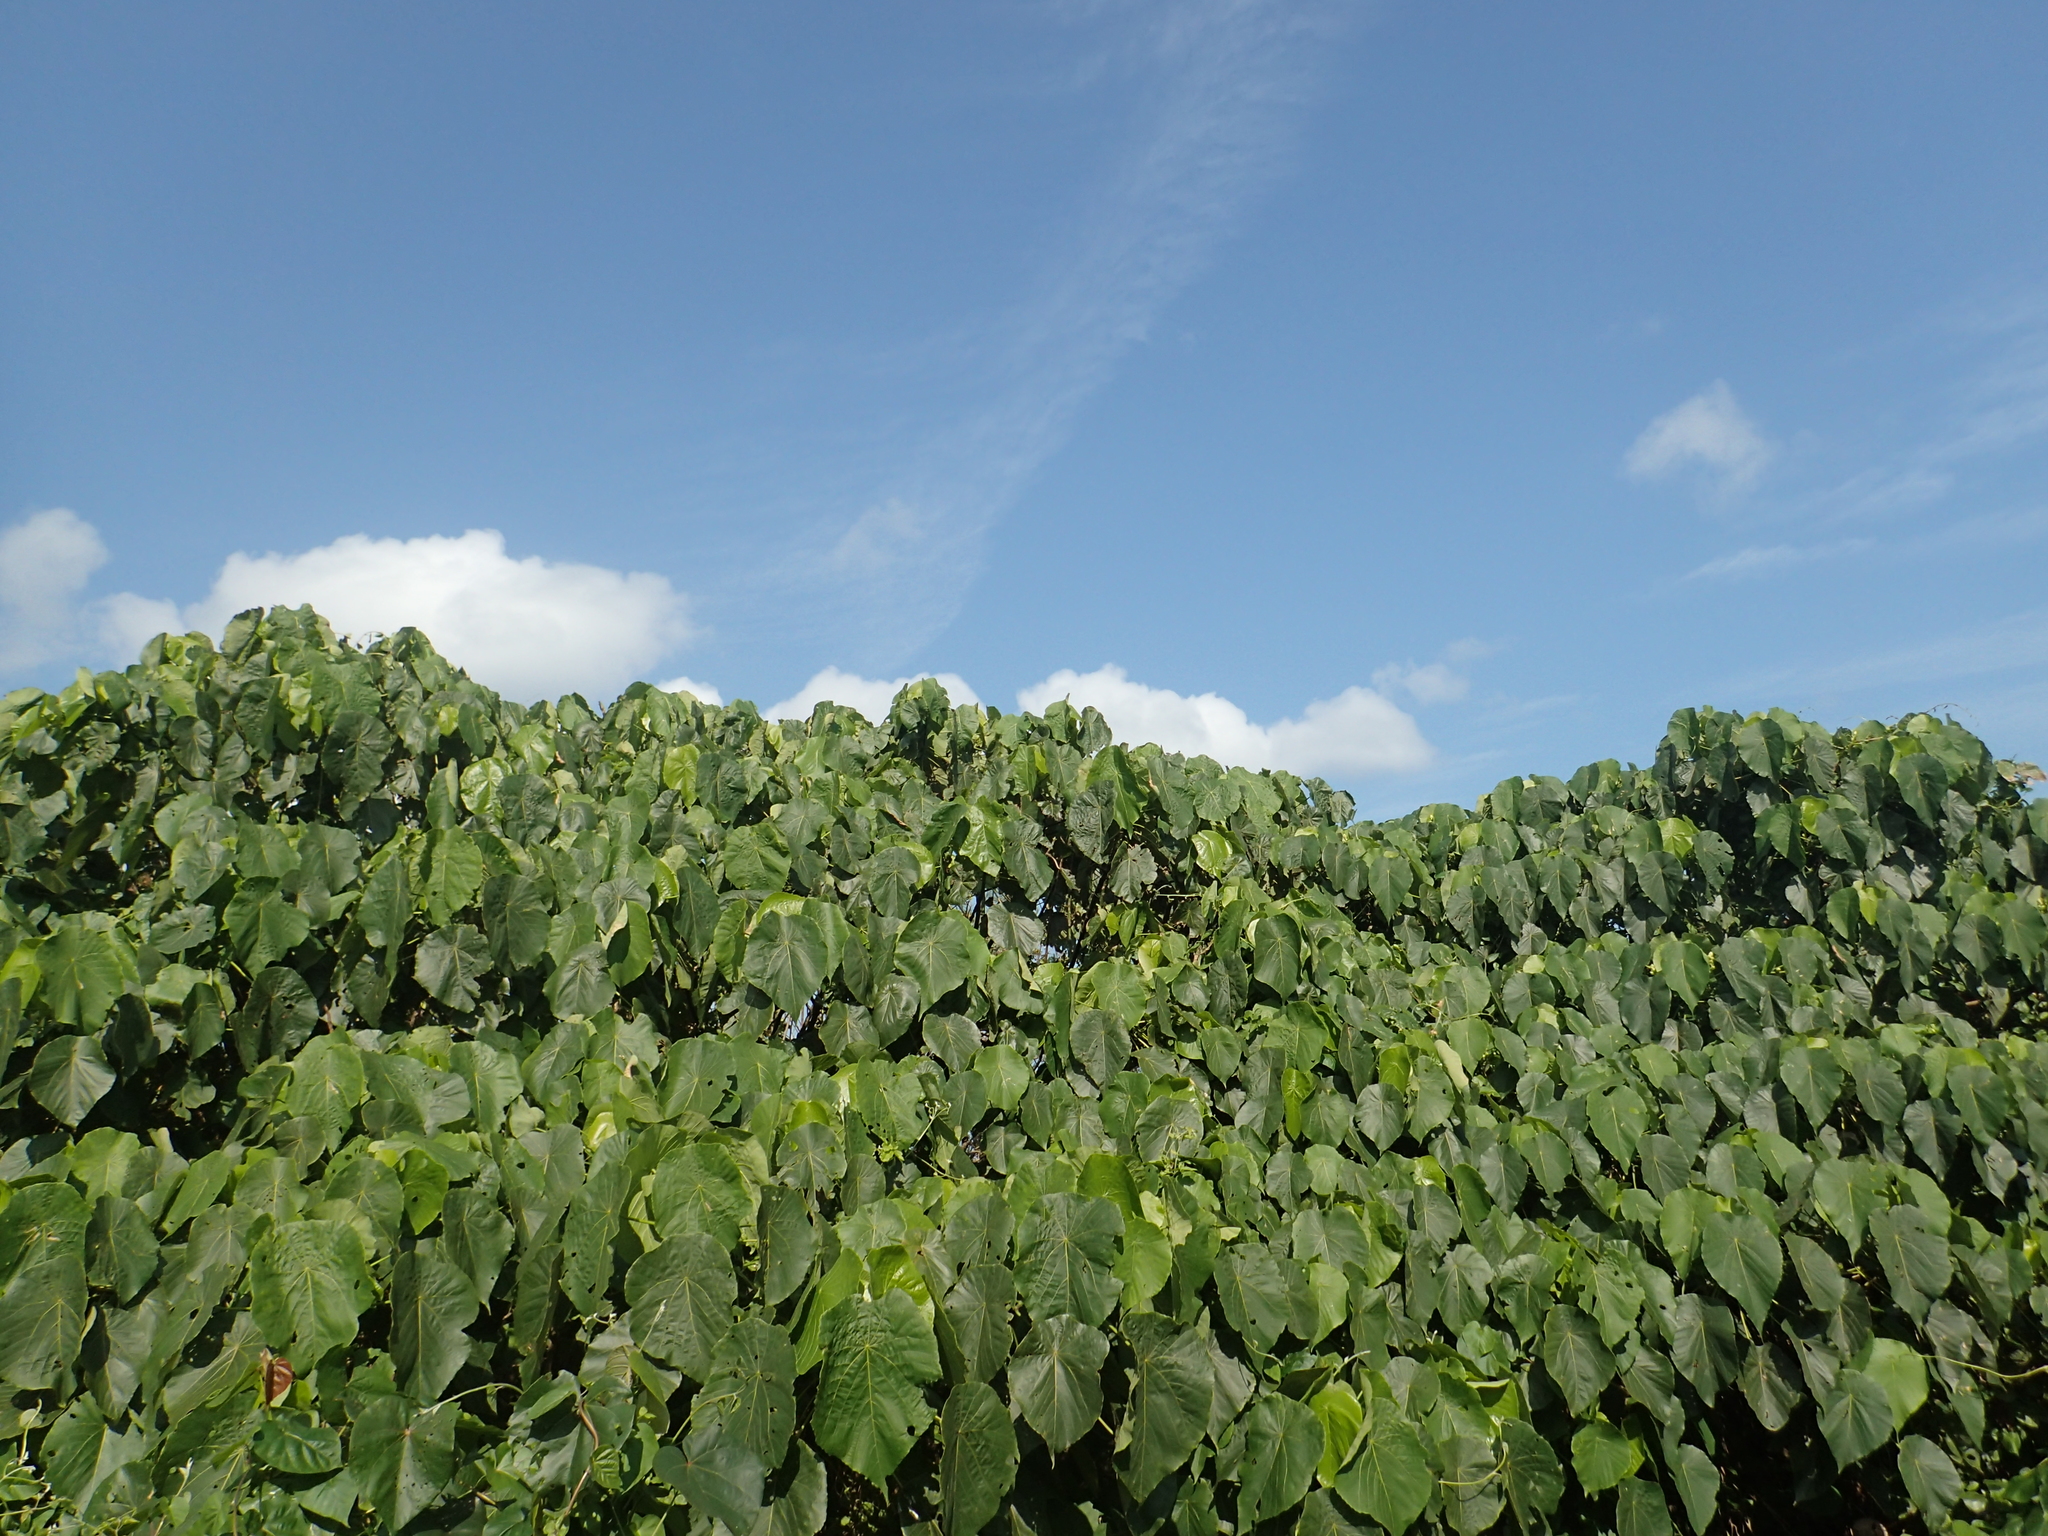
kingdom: Plantae
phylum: Tracheophyta
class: Magnoliopsida
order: Malpighiales
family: Euphorbiaceae
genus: Macaranga
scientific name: Macaranga tanarius
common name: Parasol leaf tree
